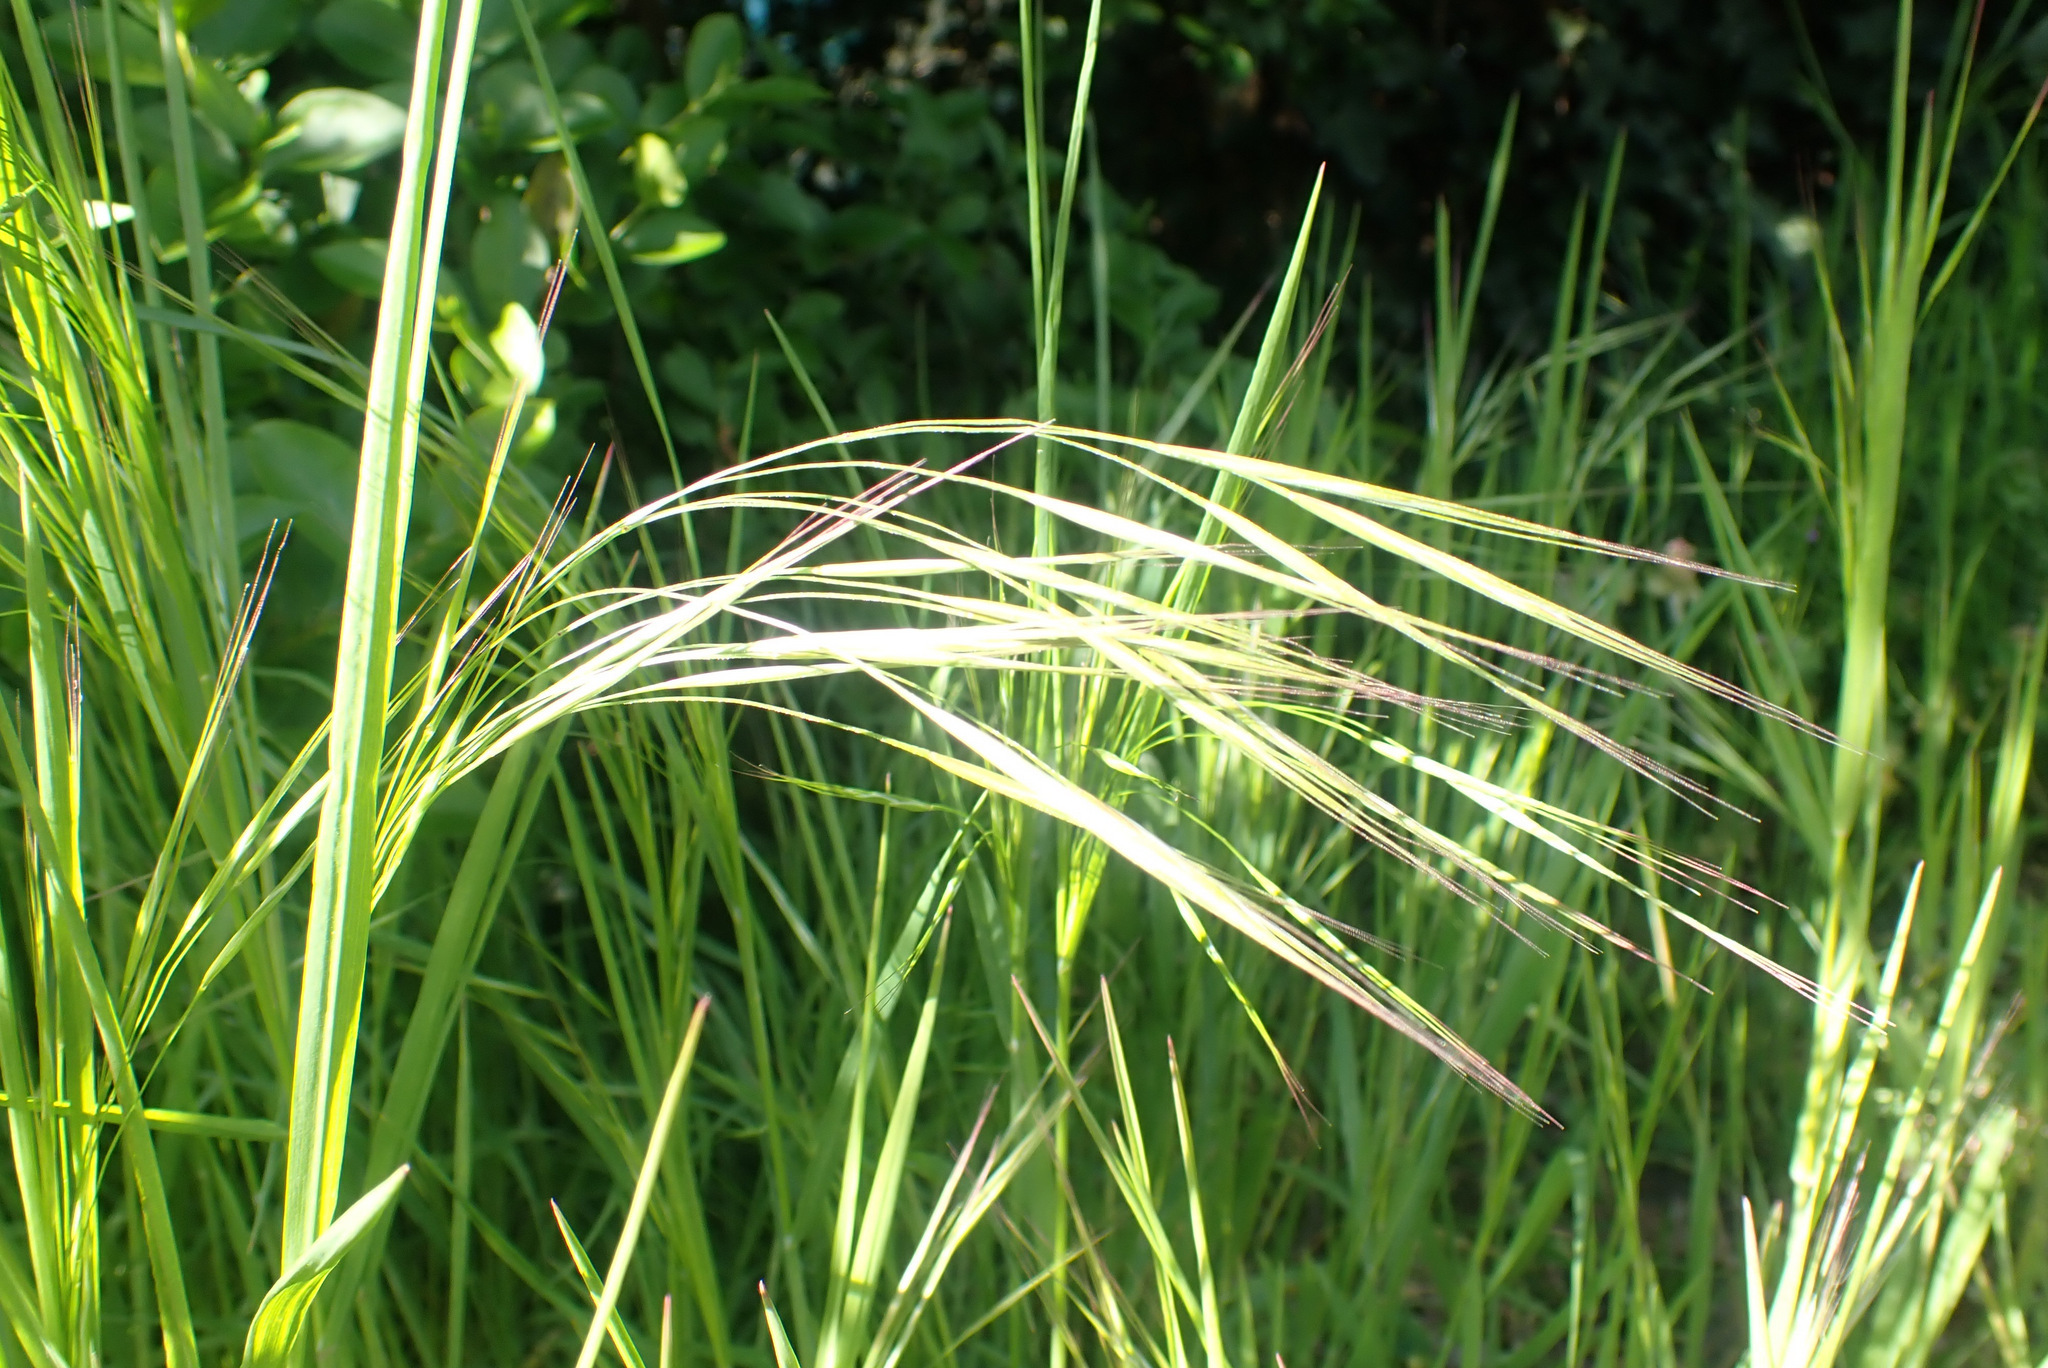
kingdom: Plantae
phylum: Tracheophyta
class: Liliopsida
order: Poales
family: Poaceae
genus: Bromus
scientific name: Bromus sterilis
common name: Poverty brome
